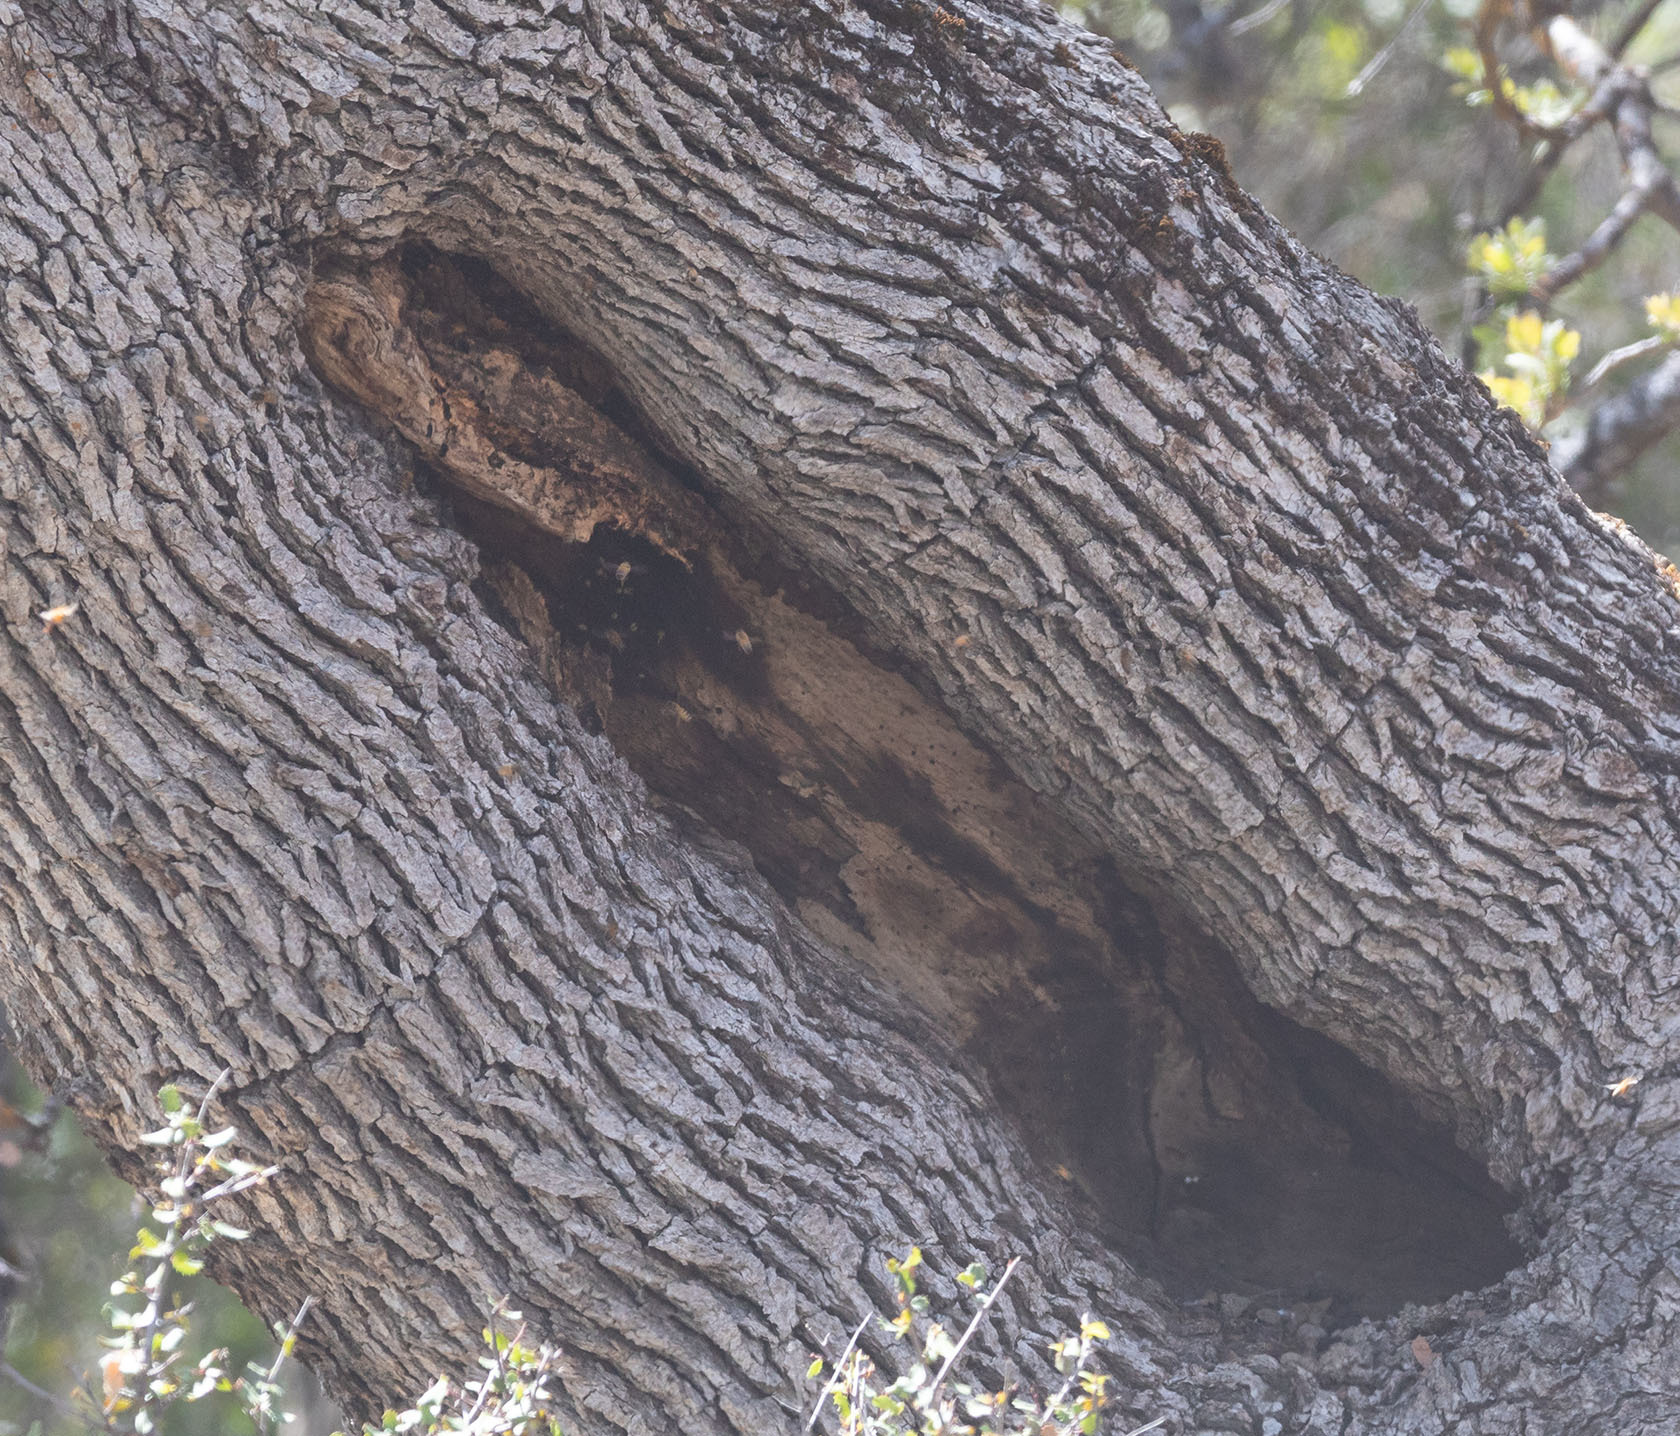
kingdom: Animalia
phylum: Arthropoda
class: Insecta
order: Hymenoptera
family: Apidae
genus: Apis
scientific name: Apis mellifera
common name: Honey bee
